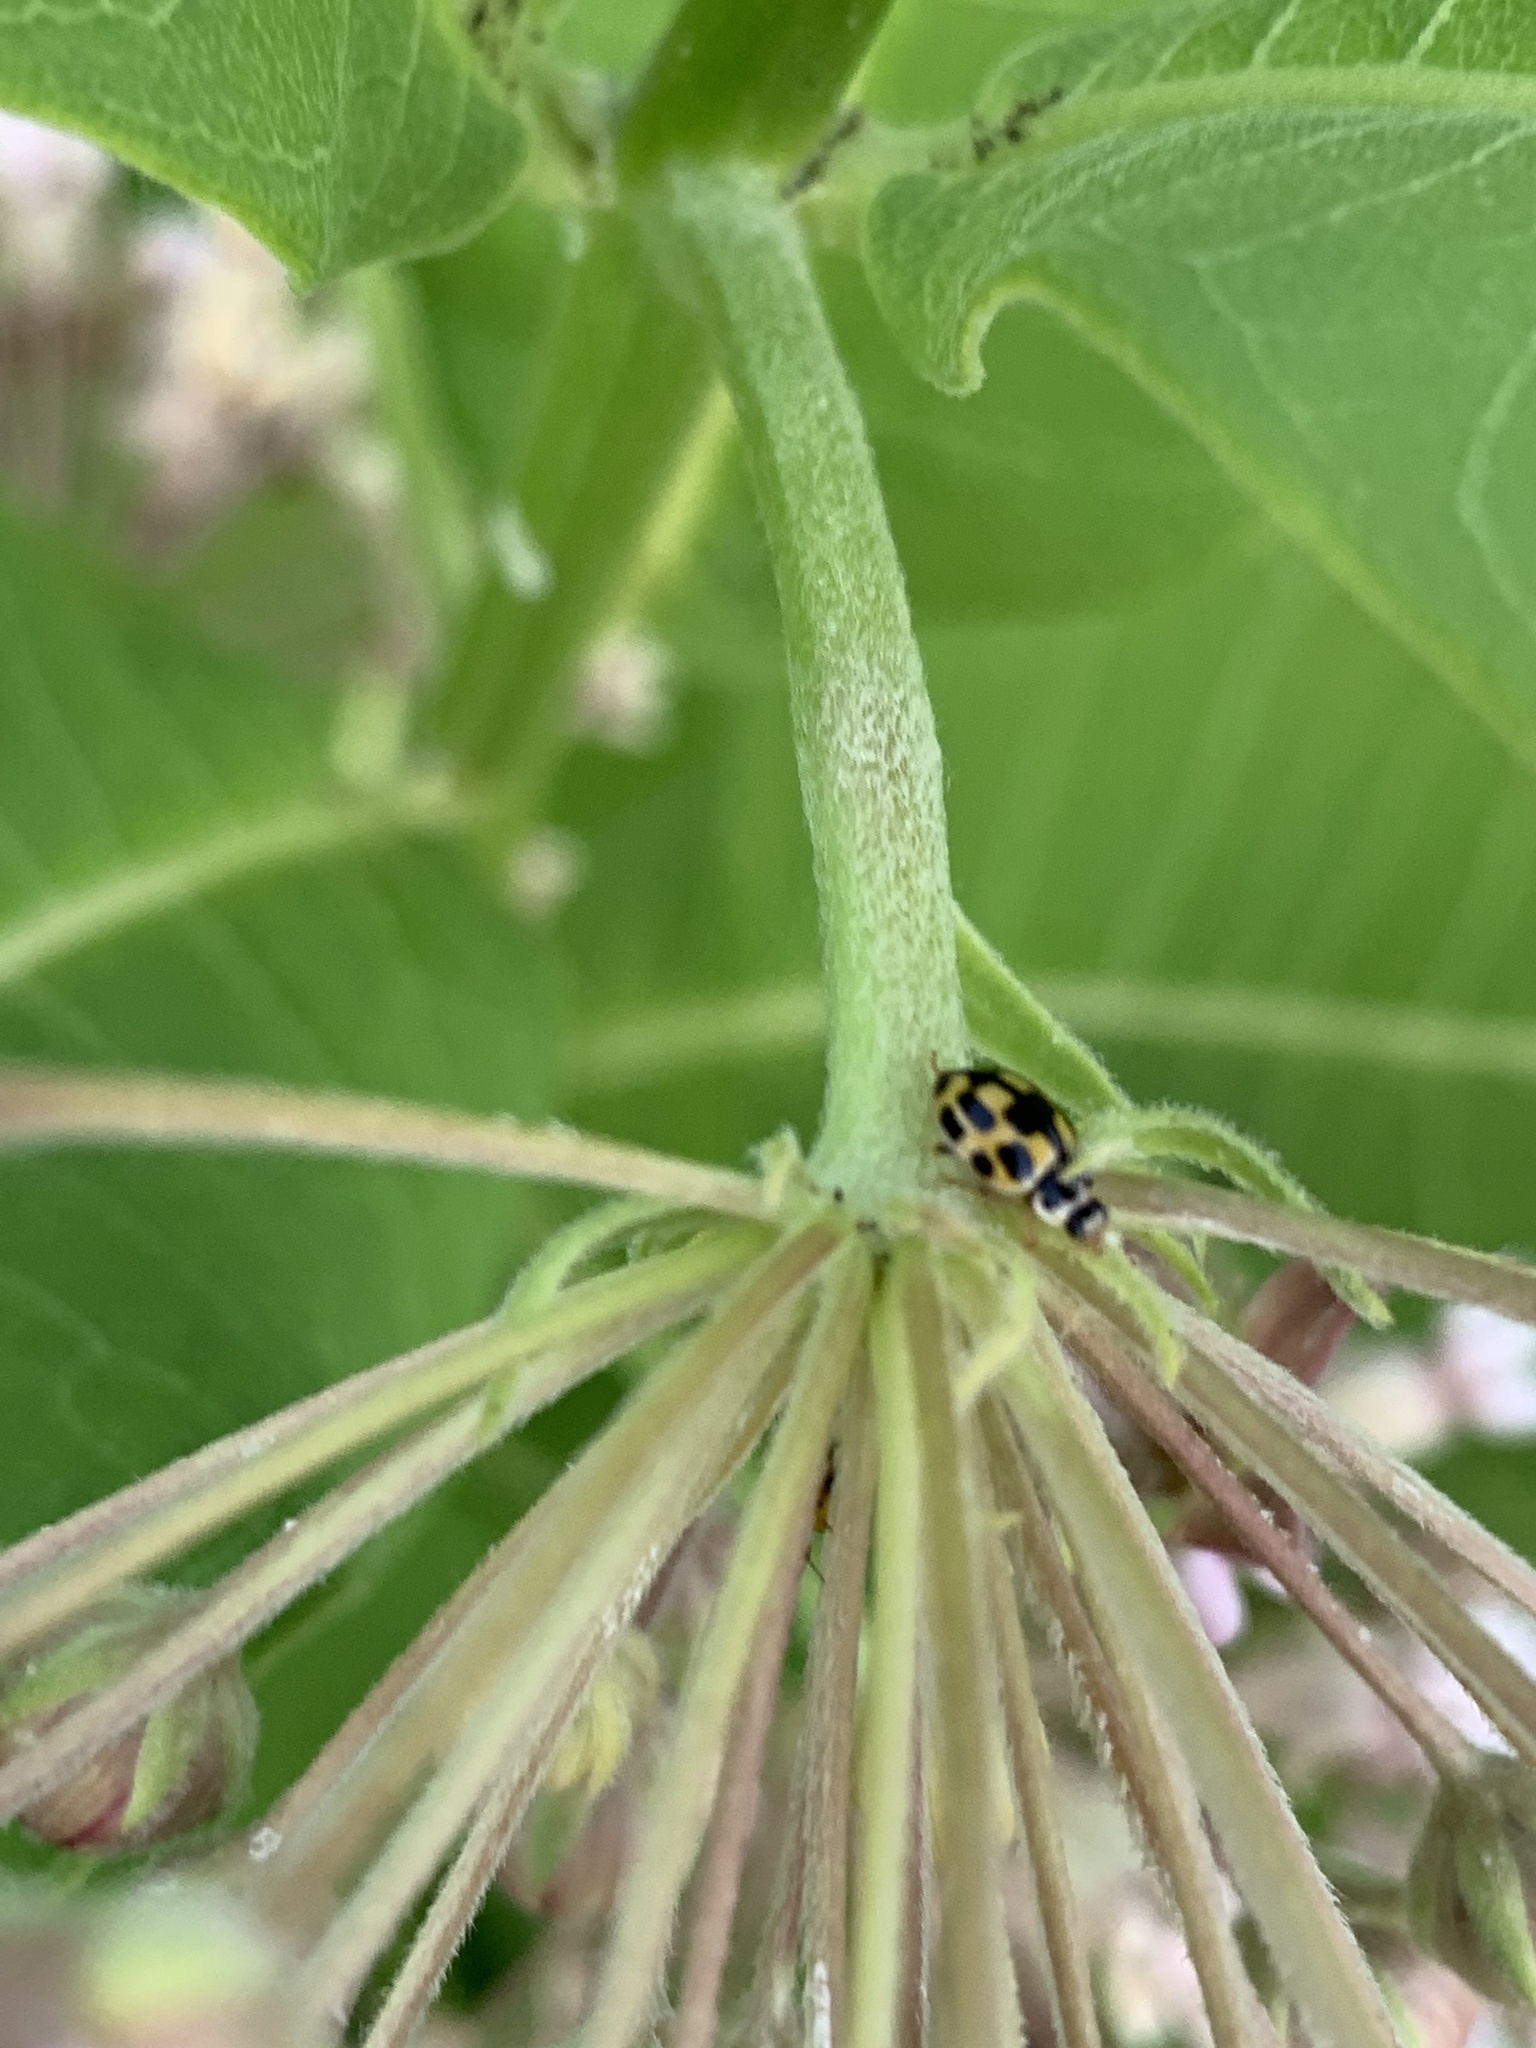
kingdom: Animalia
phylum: Arthropoda
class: Insecta
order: Coleoptera
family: Coccinellidae
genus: Propylaea
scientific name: Propylaea quatuordecimpunctata
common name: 14-spotted ladybird beetle
